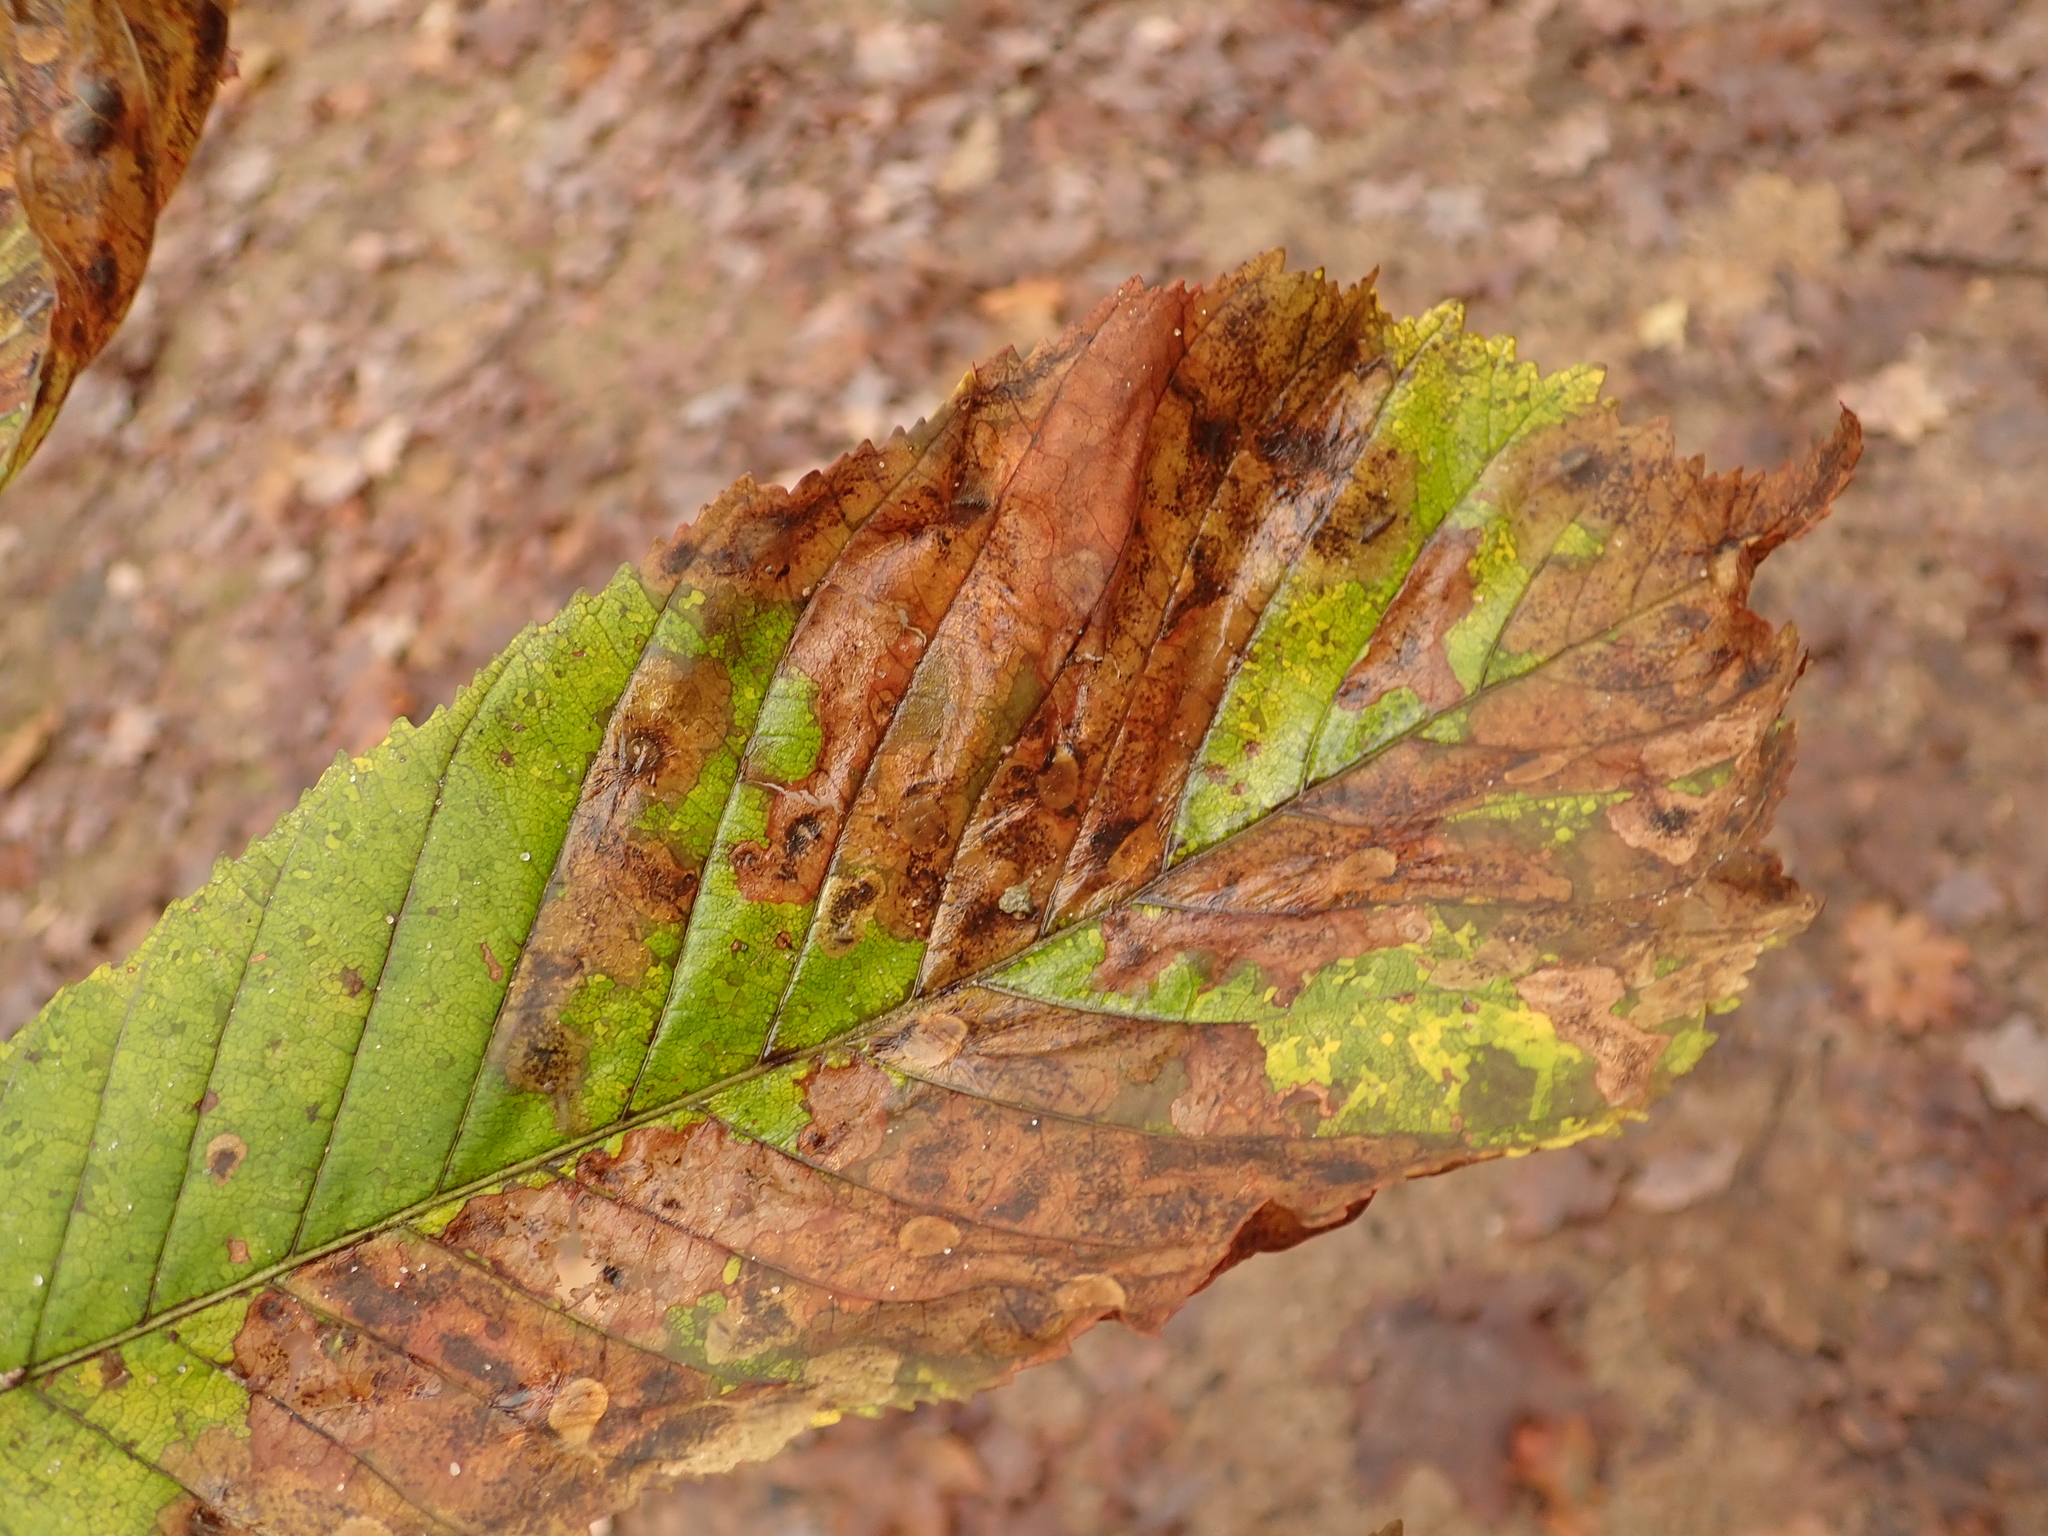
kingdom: Animalia
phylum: Arthropoda
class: Insecta
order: Lepidoptera
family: Gracillariidae
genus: Cameraria
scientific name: Cameraria ohridella
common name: Horse-chestnut leaf-miner
